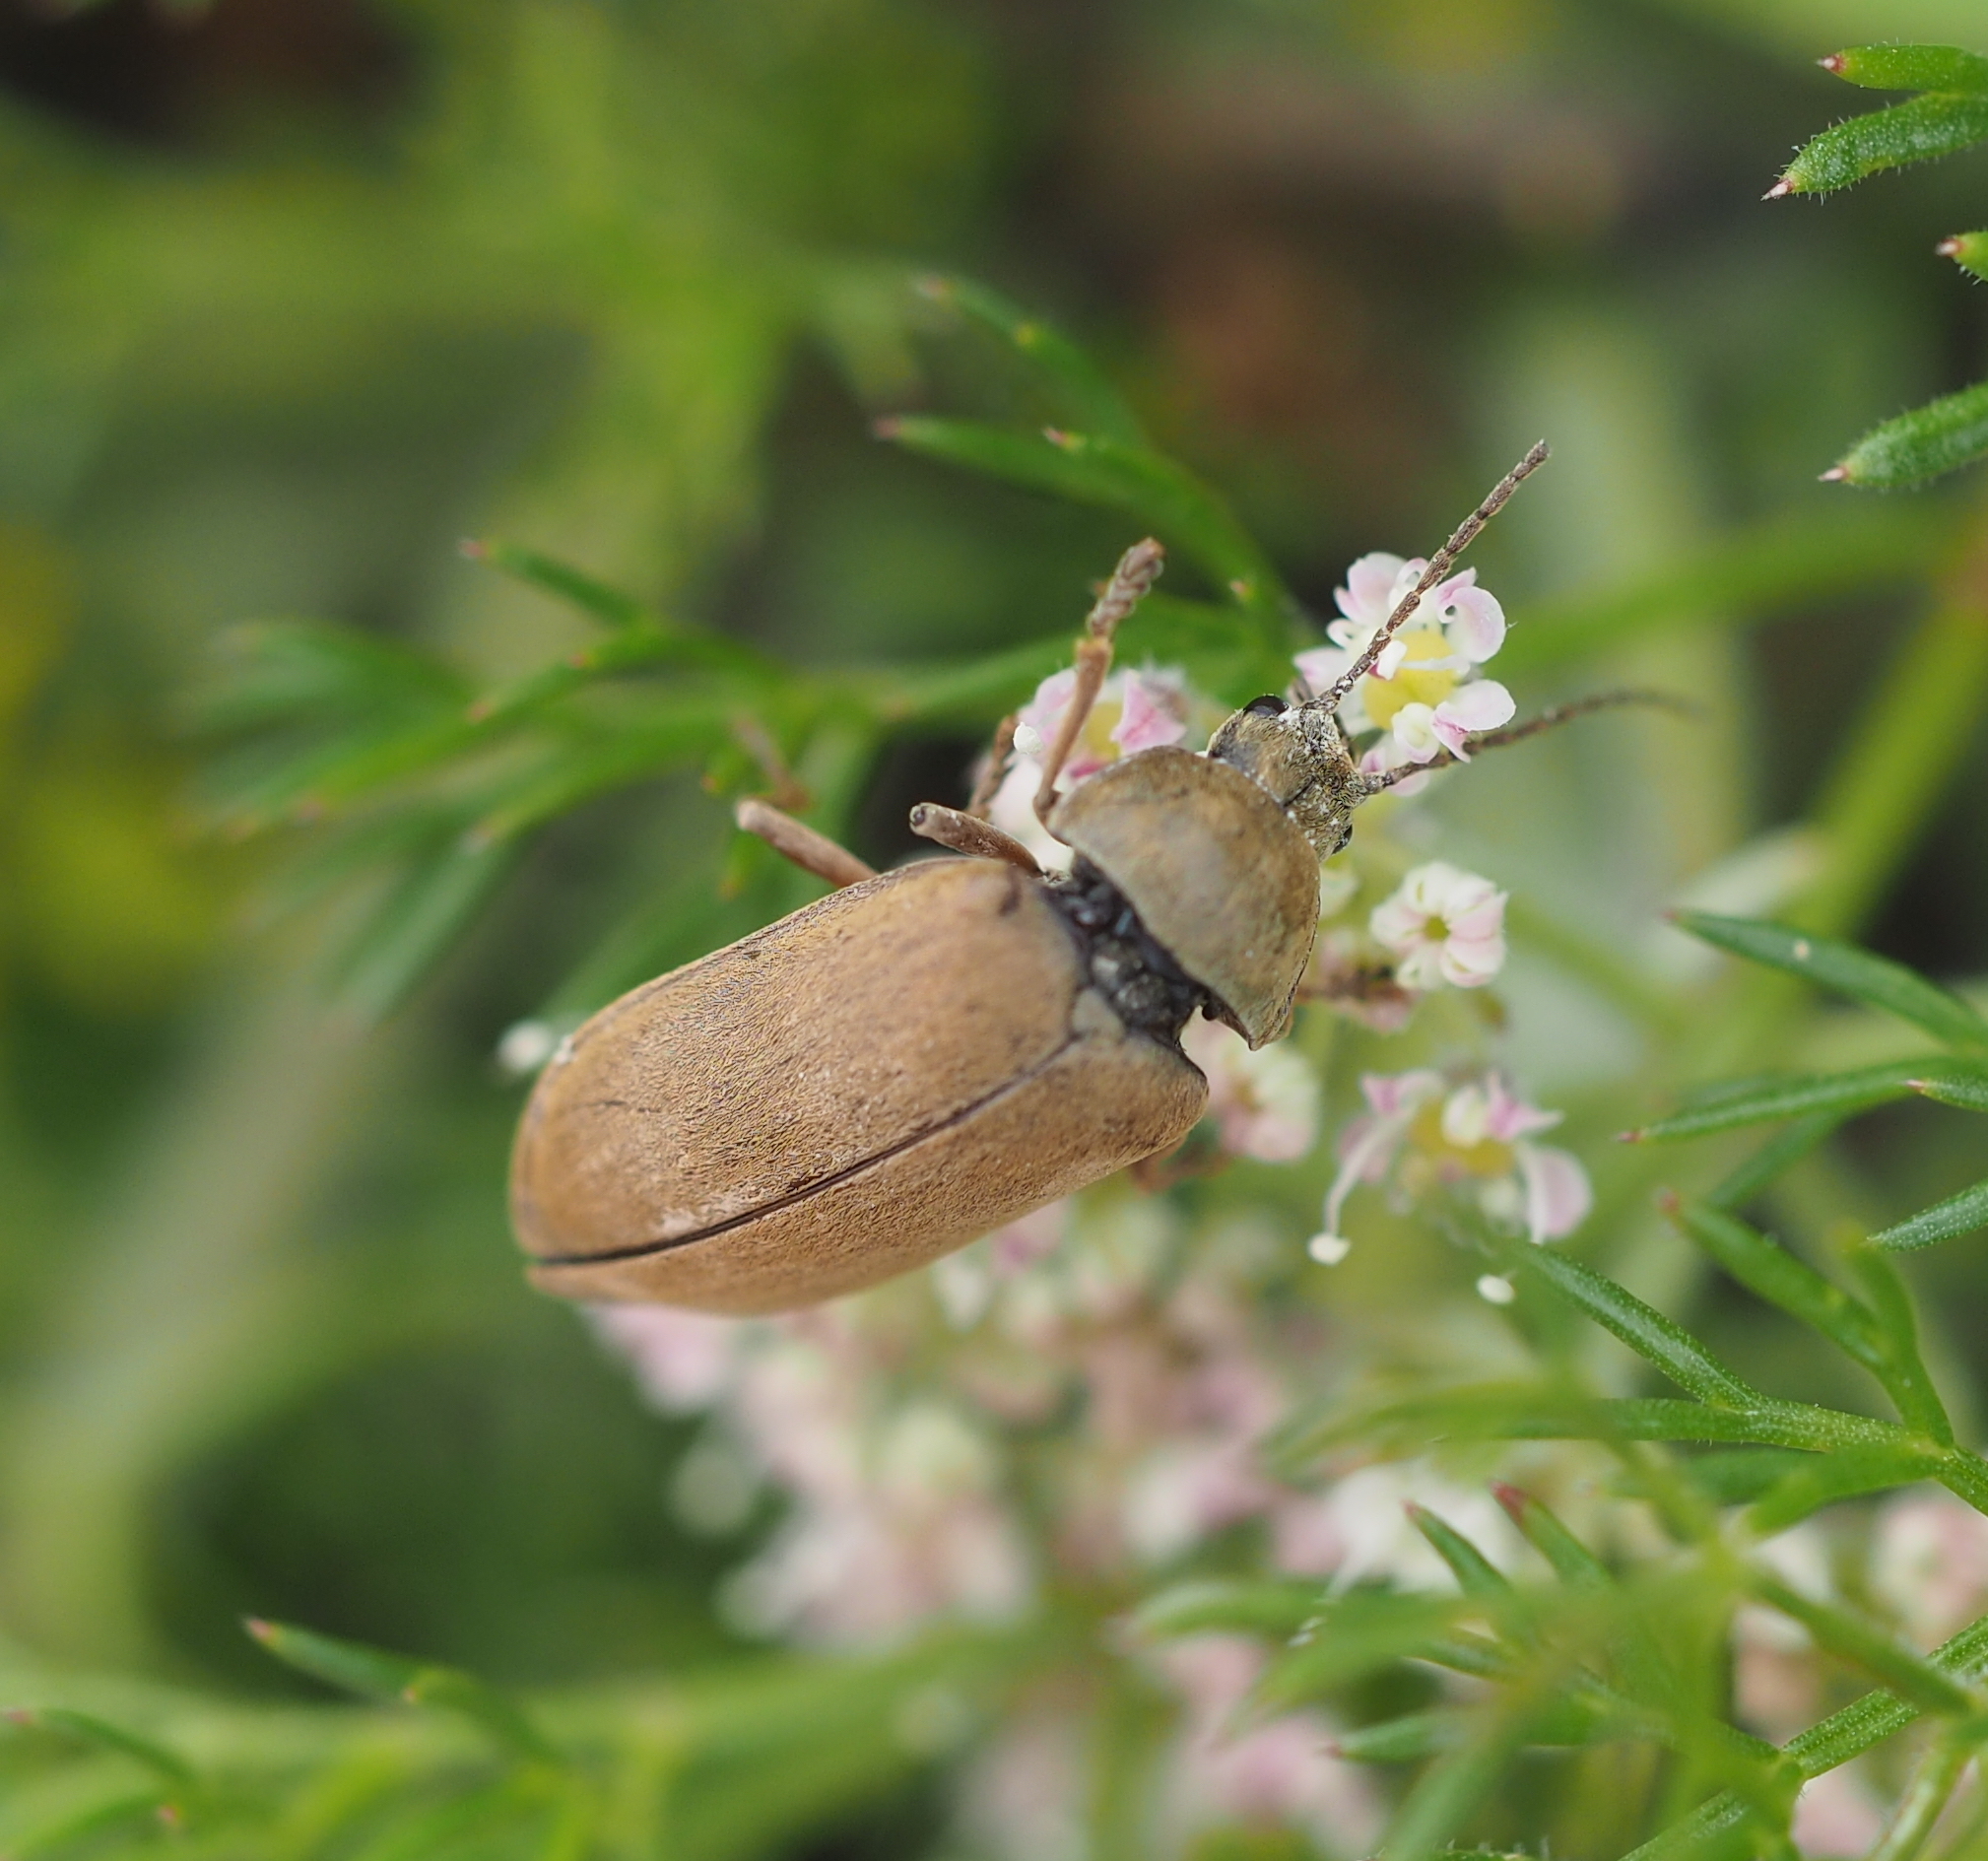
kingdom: Animalia
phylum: Arthropoda
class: Insecta
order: Coleoptera
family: Dascillidae
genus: Dascillus
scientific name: Dascillus cervinus
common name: Orchid beetle
